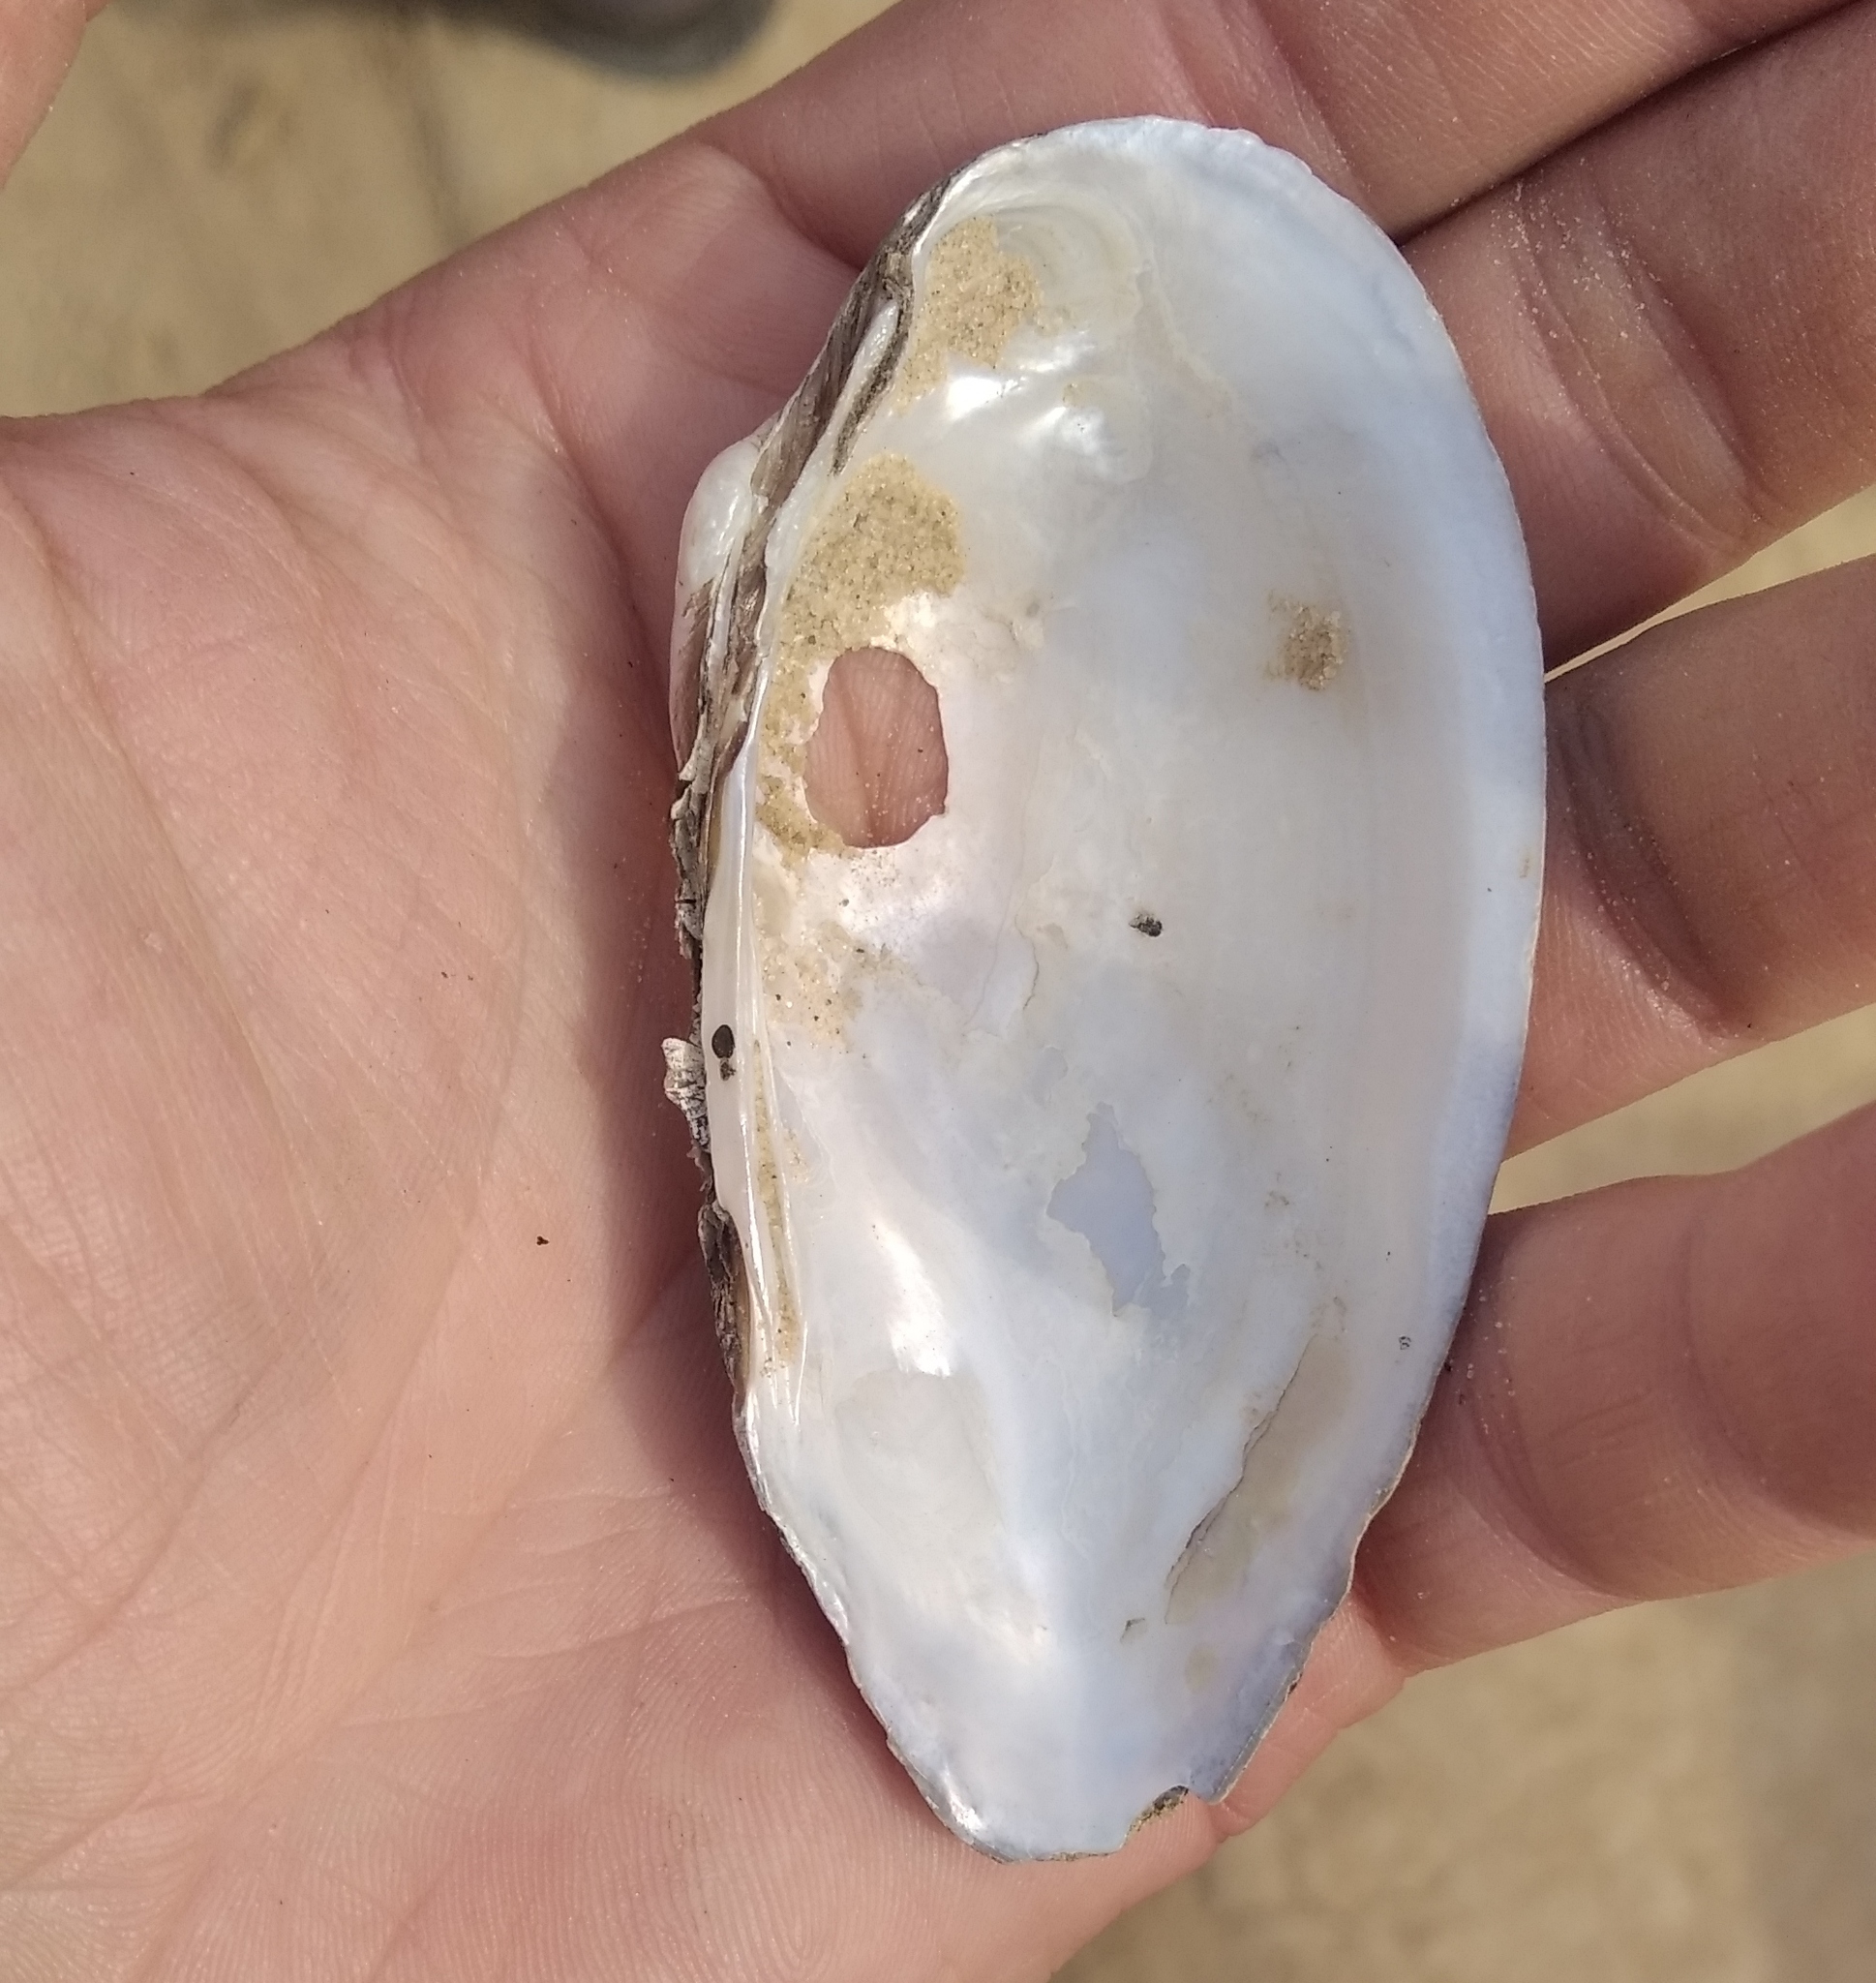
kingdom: Animalia
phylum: Mollusca
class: Bivalvia
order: Unionida
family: Unionidae
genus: Unio
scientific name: Unio tumidus
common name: Swollen river mussel
